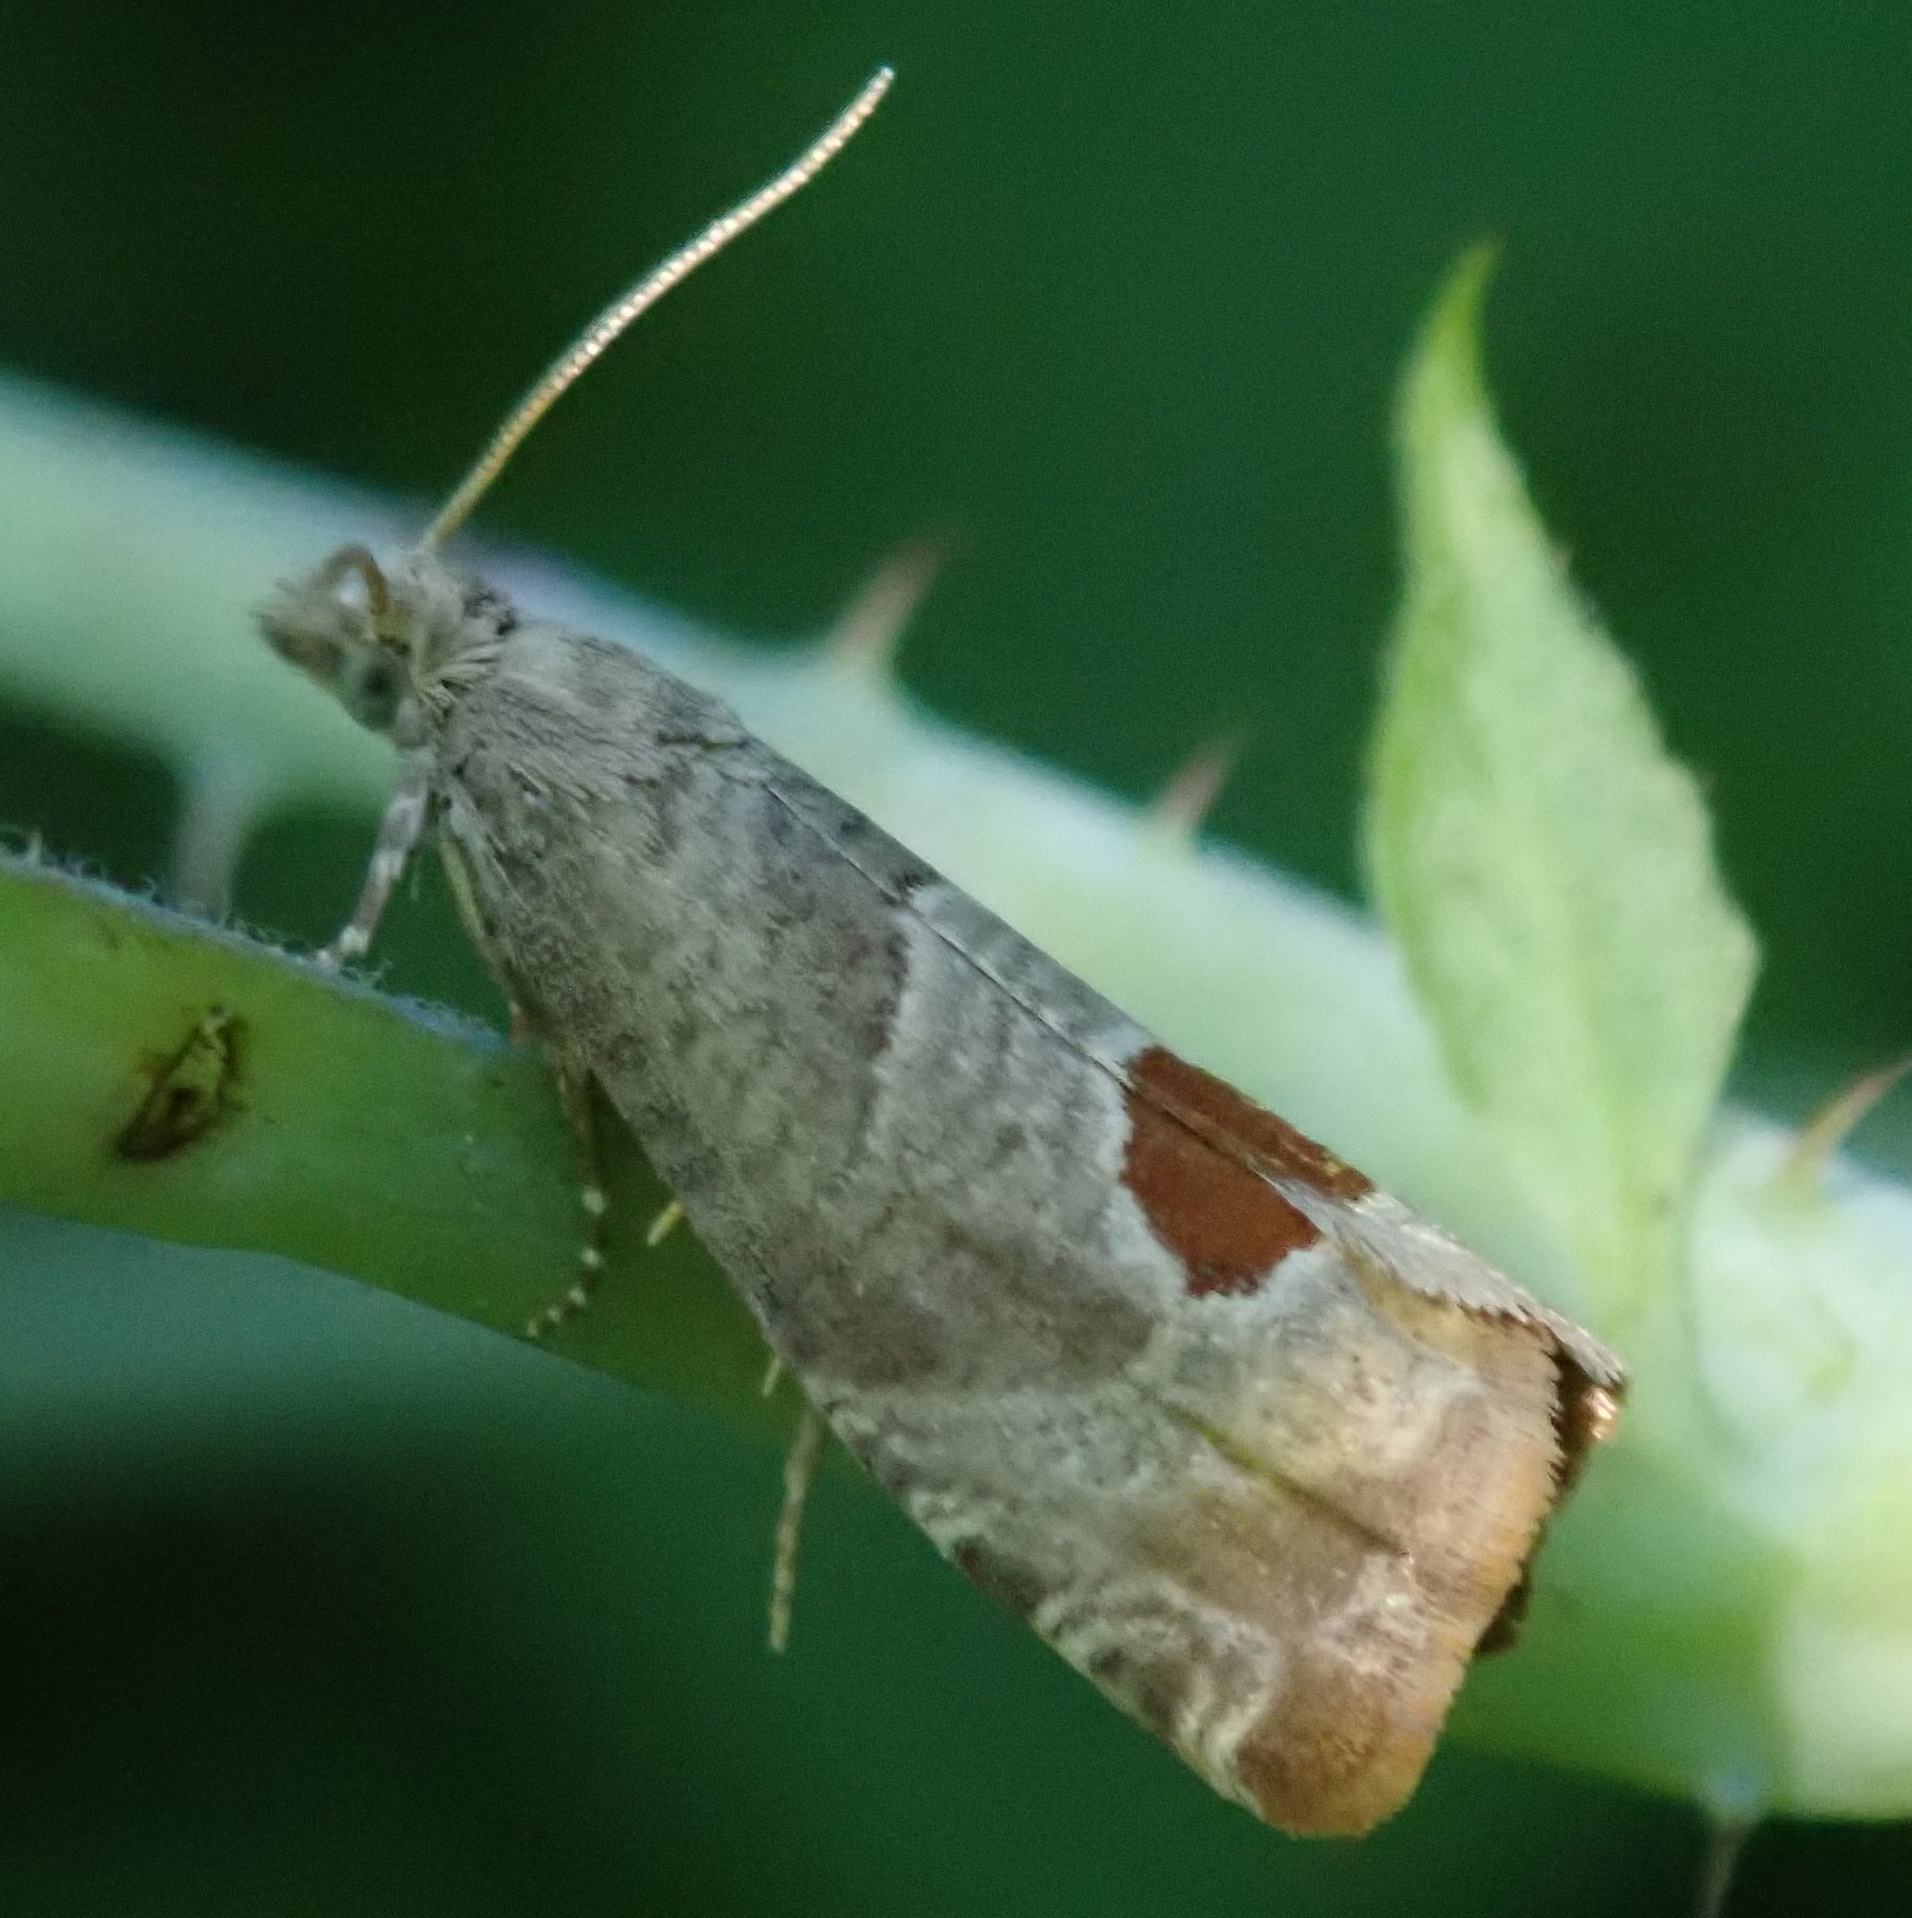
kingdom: Animalia
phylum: Arthropoda
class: Insecta
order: Lepidoptera
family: Tortricidae
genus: Notocelia
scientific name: Notocelia uddmanniana
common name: Bramble shoot moth
